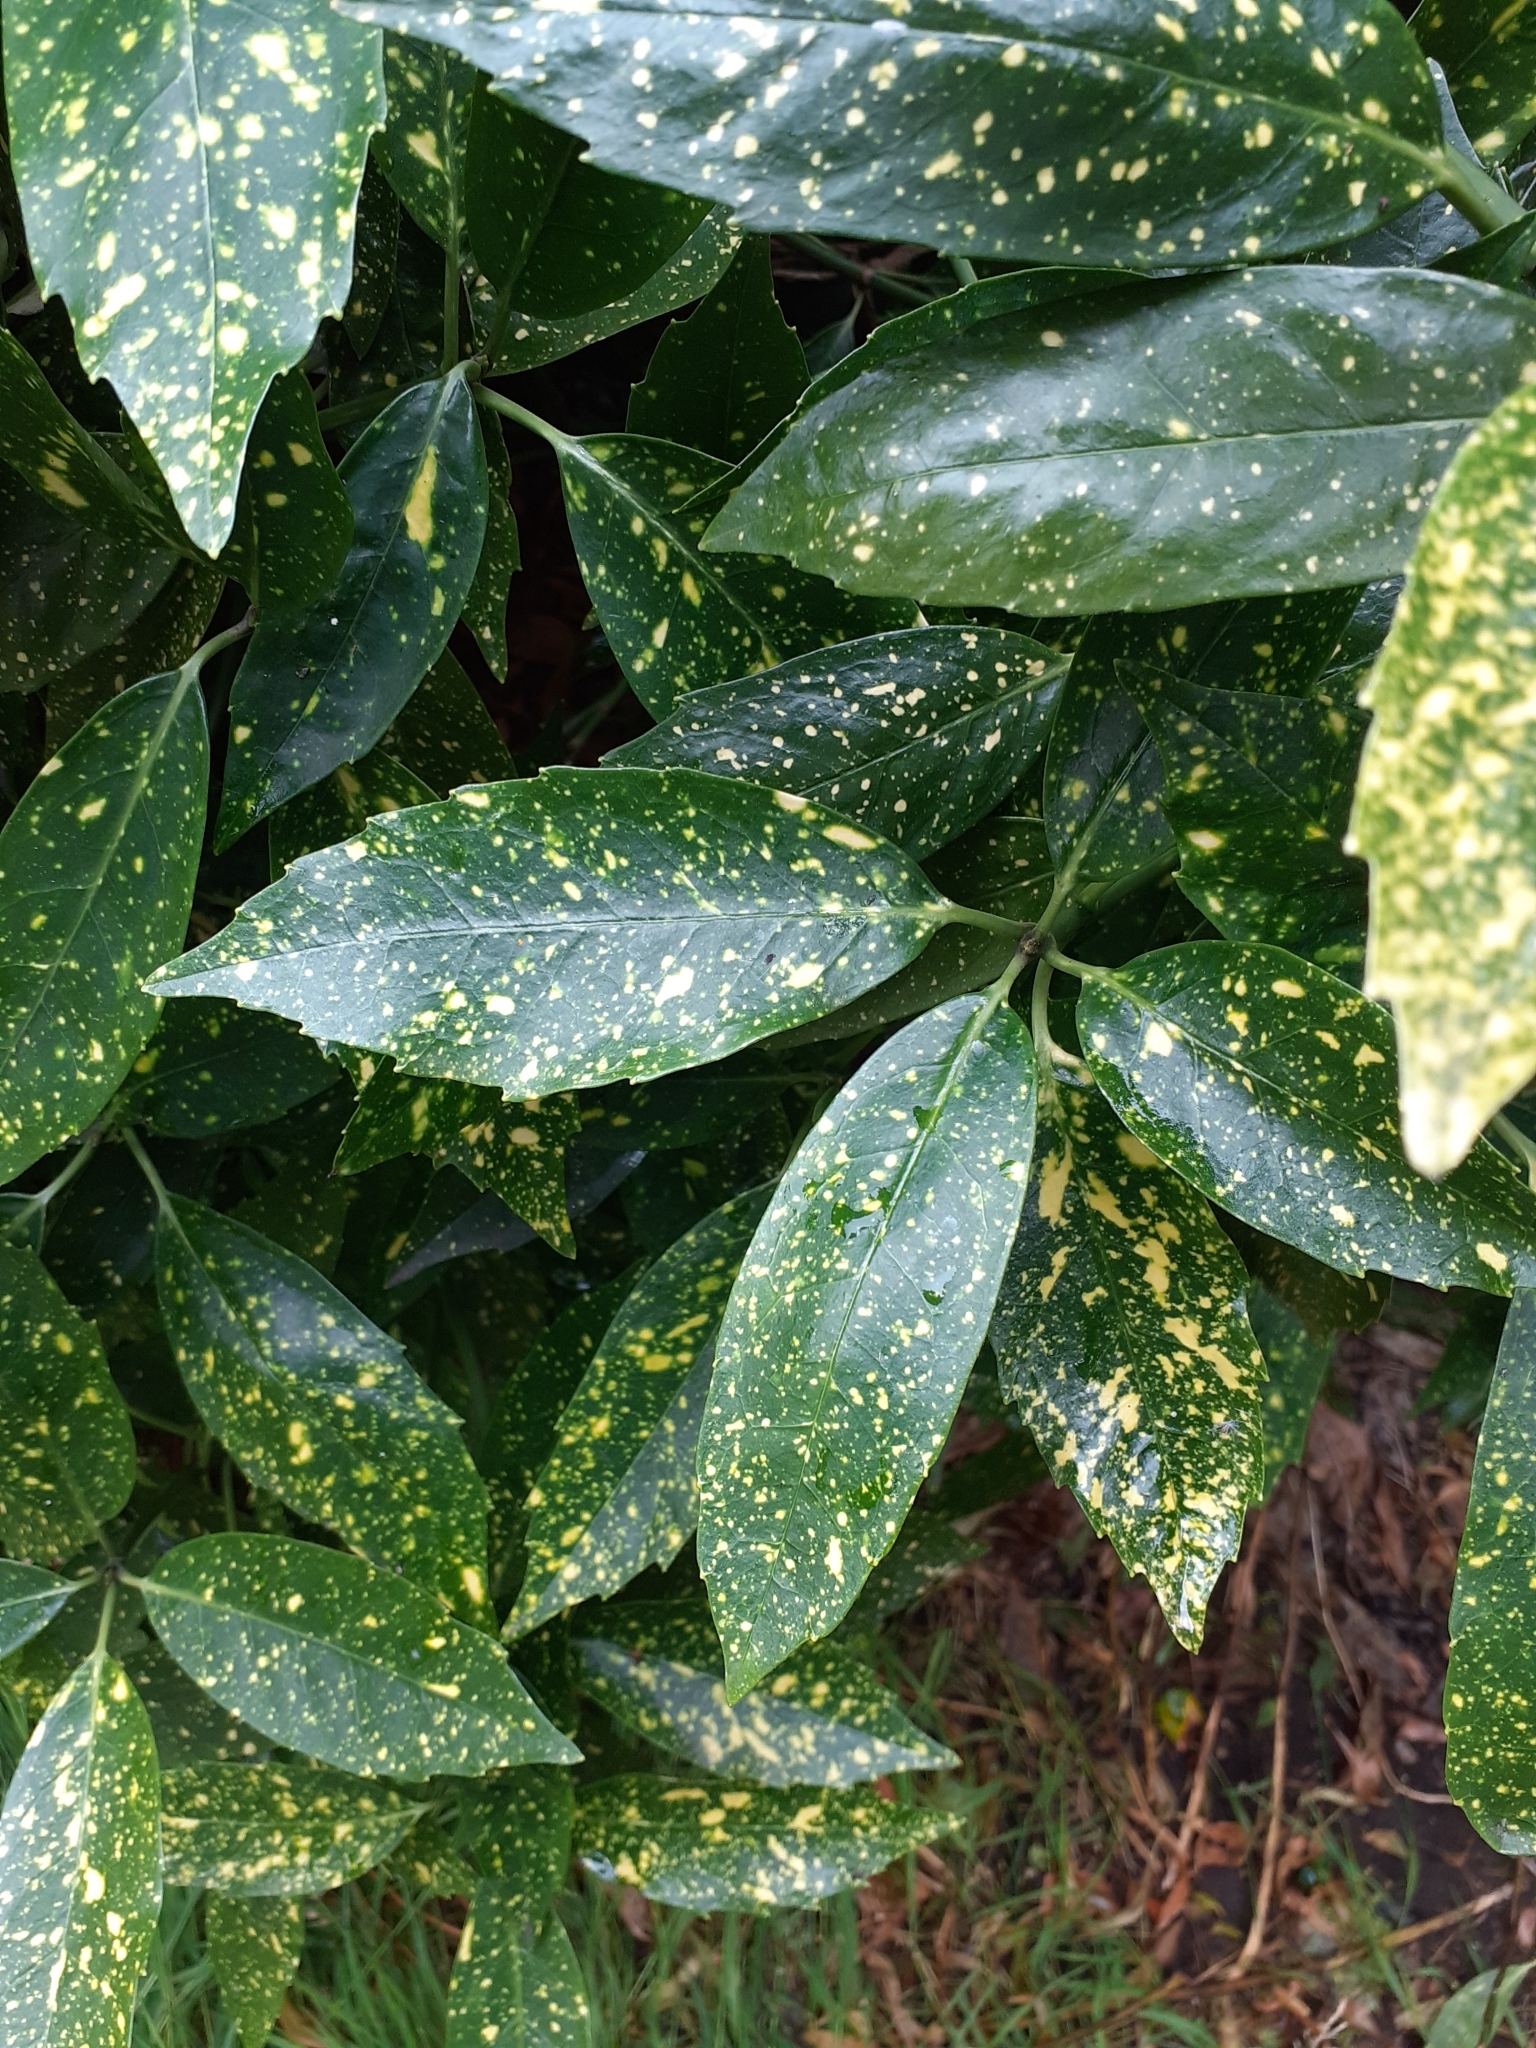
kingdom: Plantae
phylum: Tracheophyta
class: Magnoliopsida
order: Garryales
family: Garryaceae
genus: Aucuba
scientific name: Aucuba japonica
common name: Spotted-laurel
